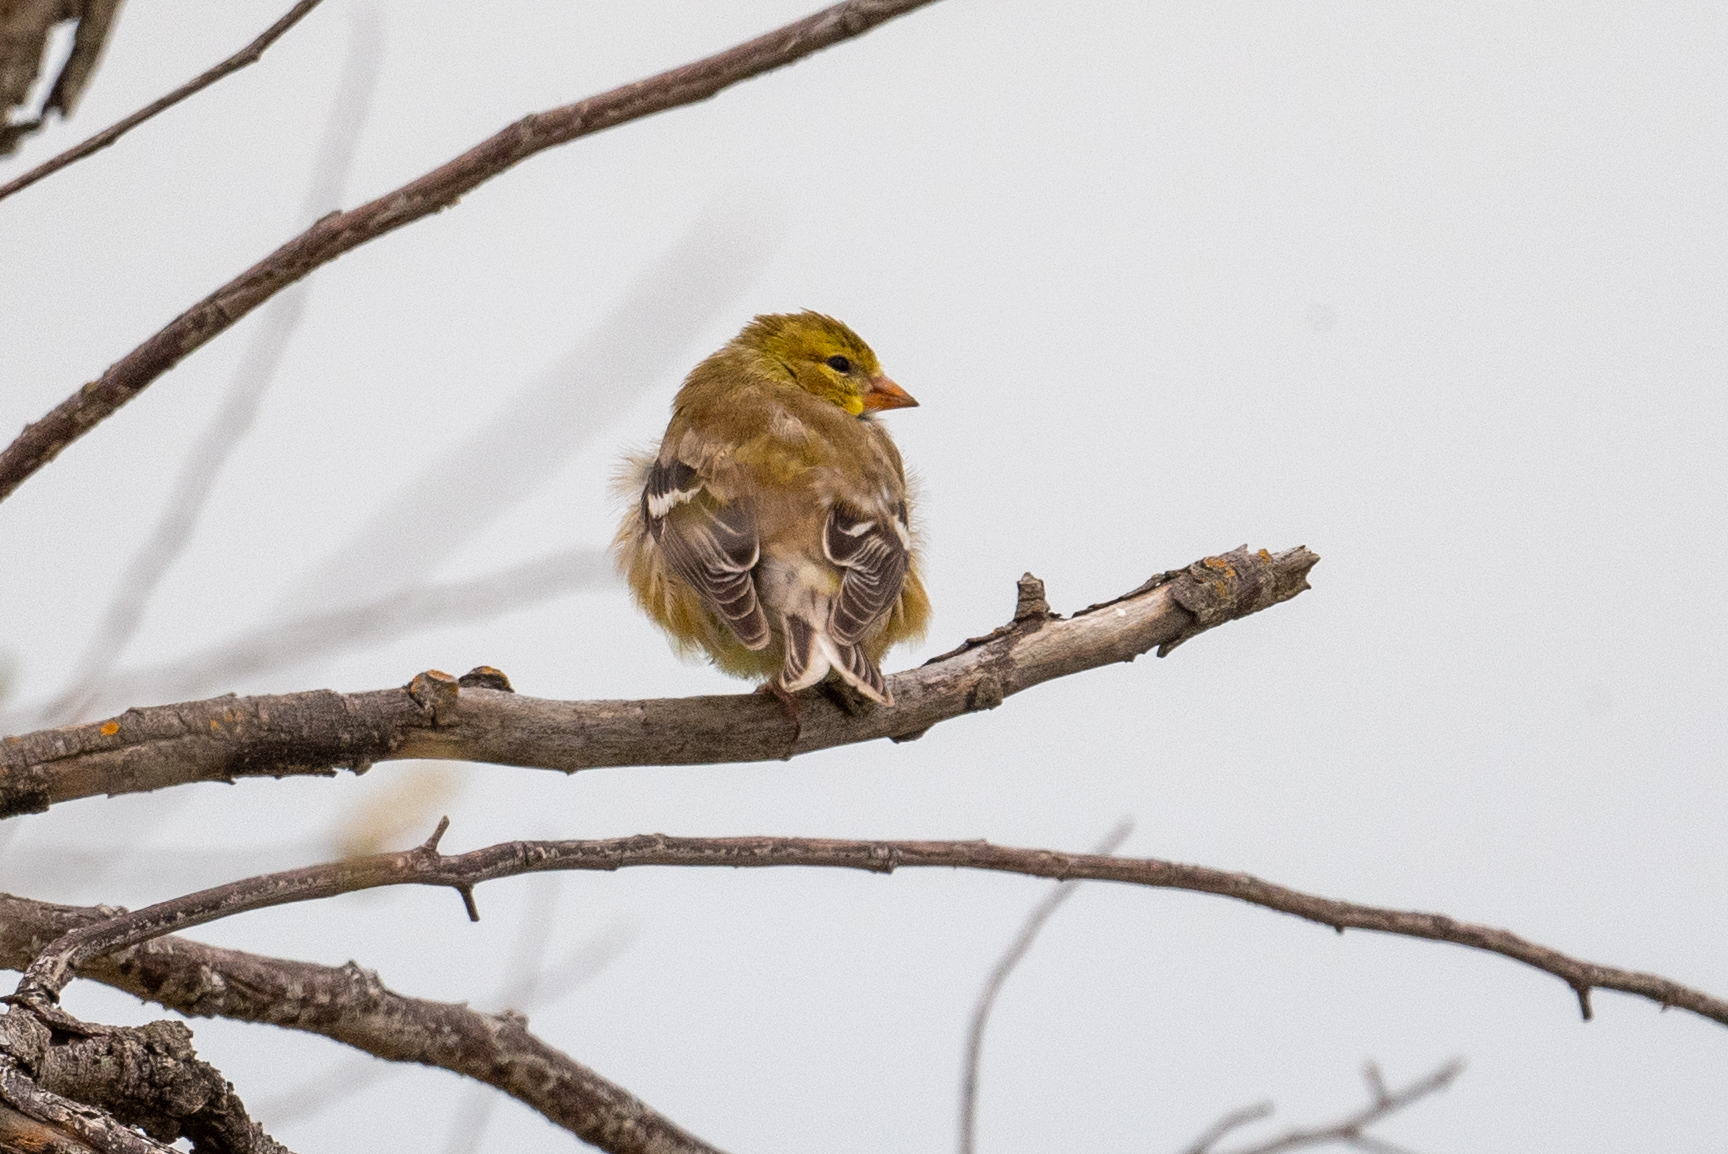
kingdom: Animalia
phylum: Chordata
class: Aves
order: Passeriformes
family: Fringillidae
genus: Spinus
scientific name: Spinus tristis
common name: American goldfinch
